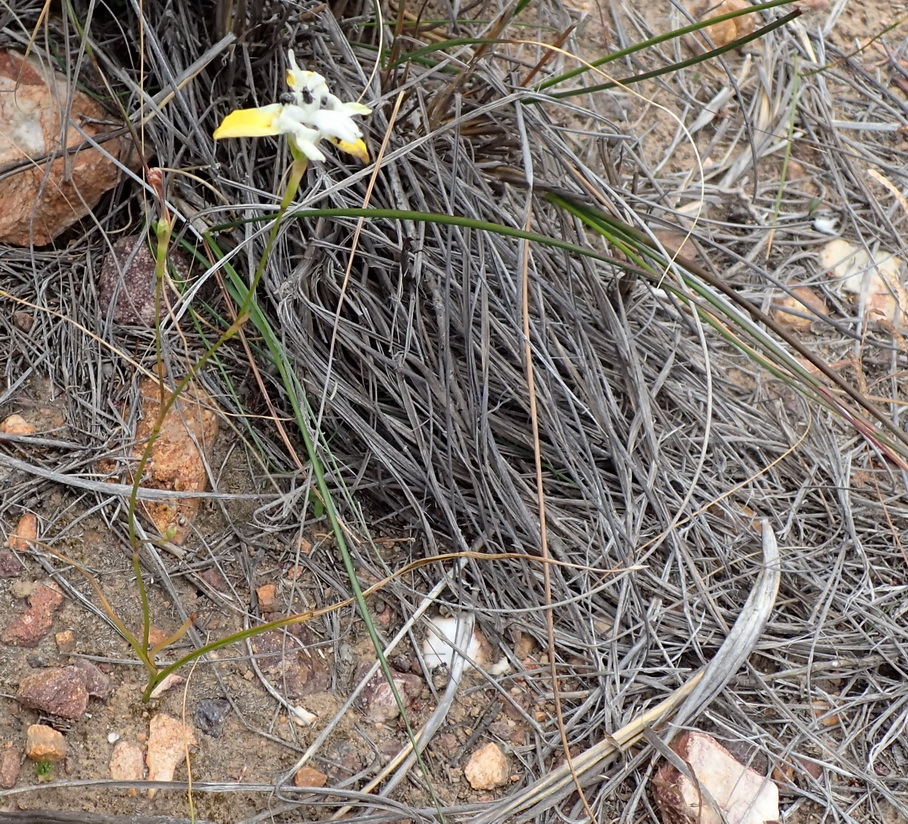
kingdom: Plantae
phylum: Tracheophyta
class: Liliopsida
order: Asparagales
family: Iridaceae
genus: Moraea
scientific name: Moraea gawleri
